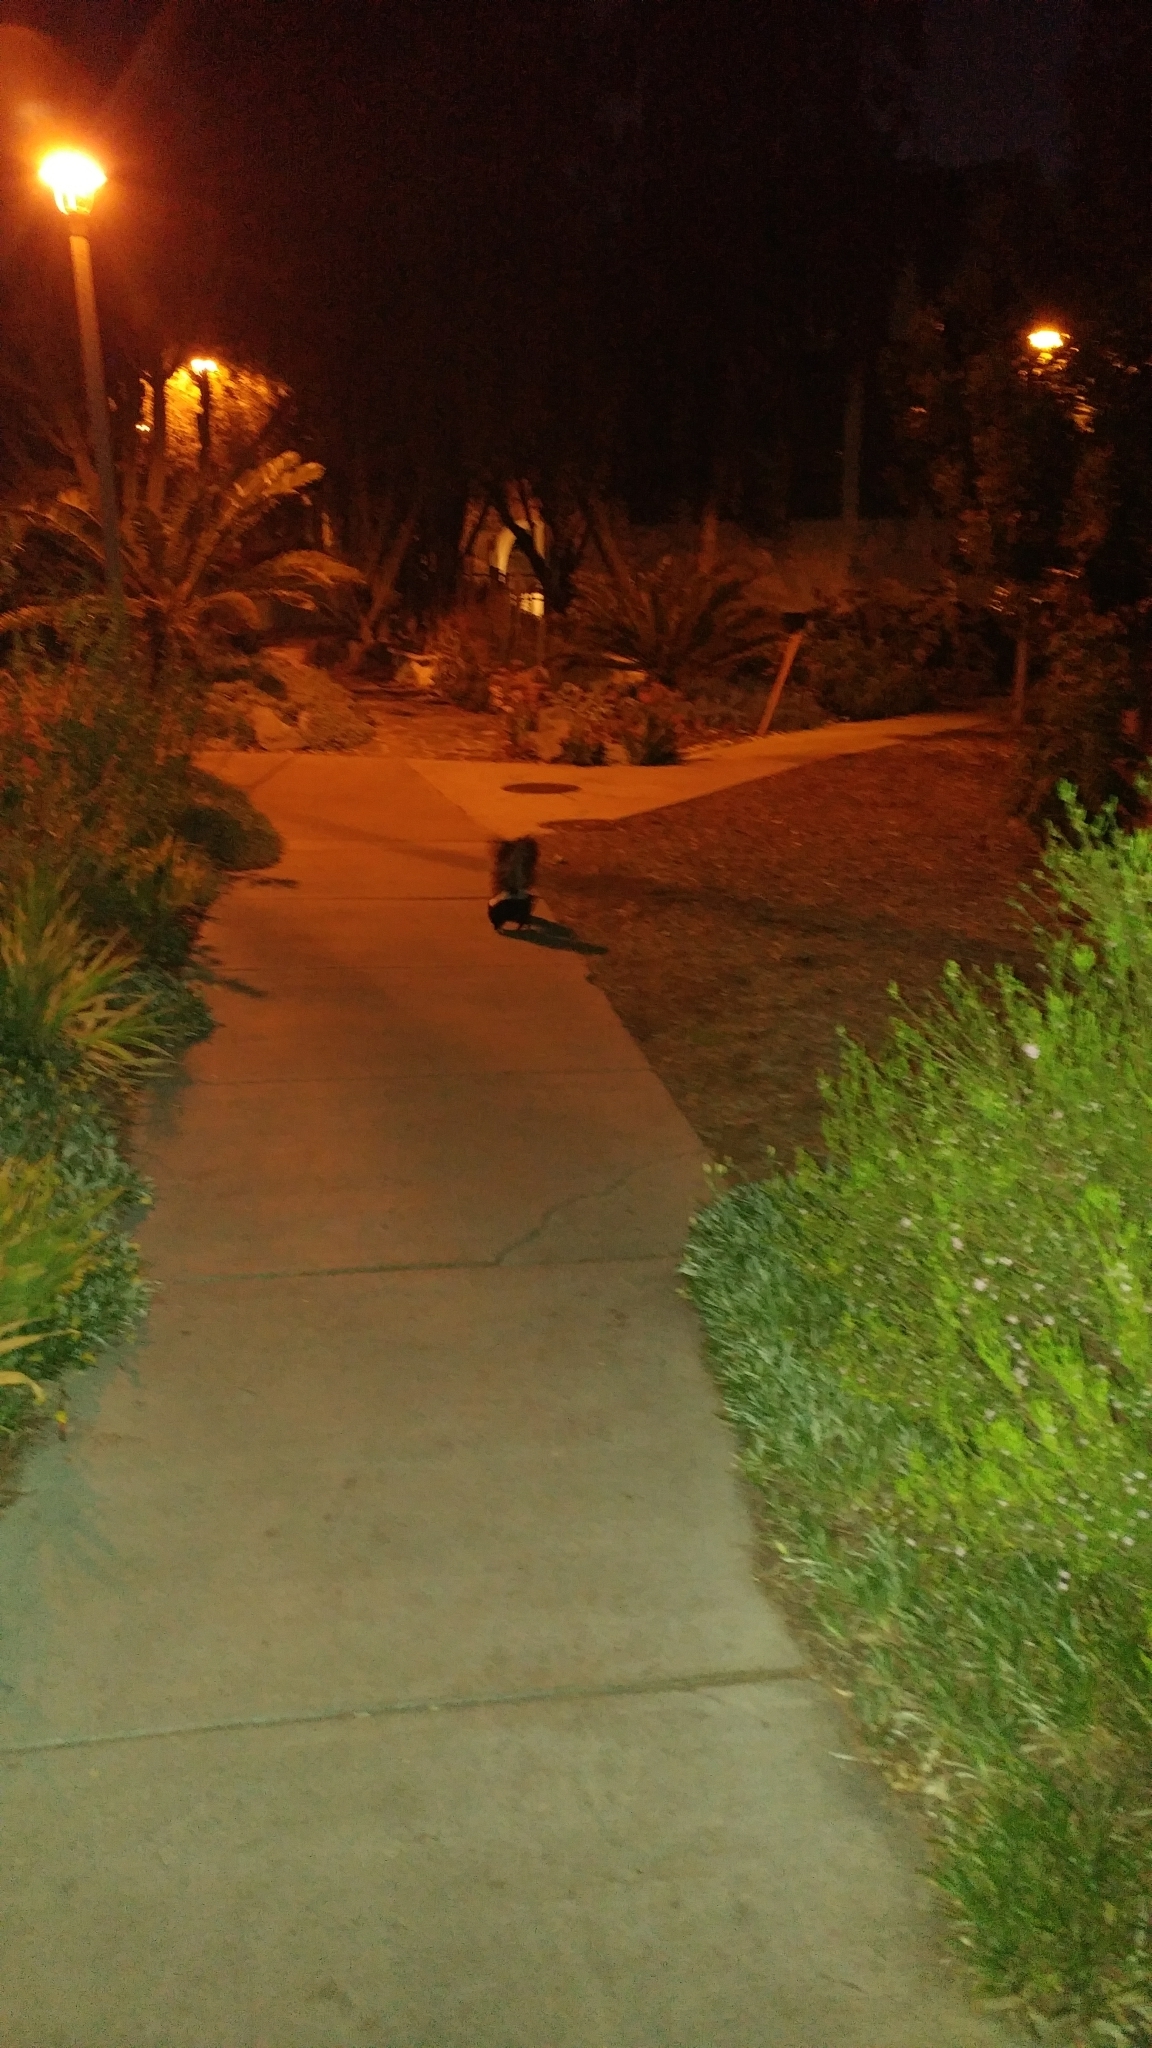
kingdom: Animalia
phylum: Chordata
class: Mammalia
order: Carnivora
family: Mephitidae
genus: Mephitis
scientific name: Mephitis mephitis
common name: Striped skunk
